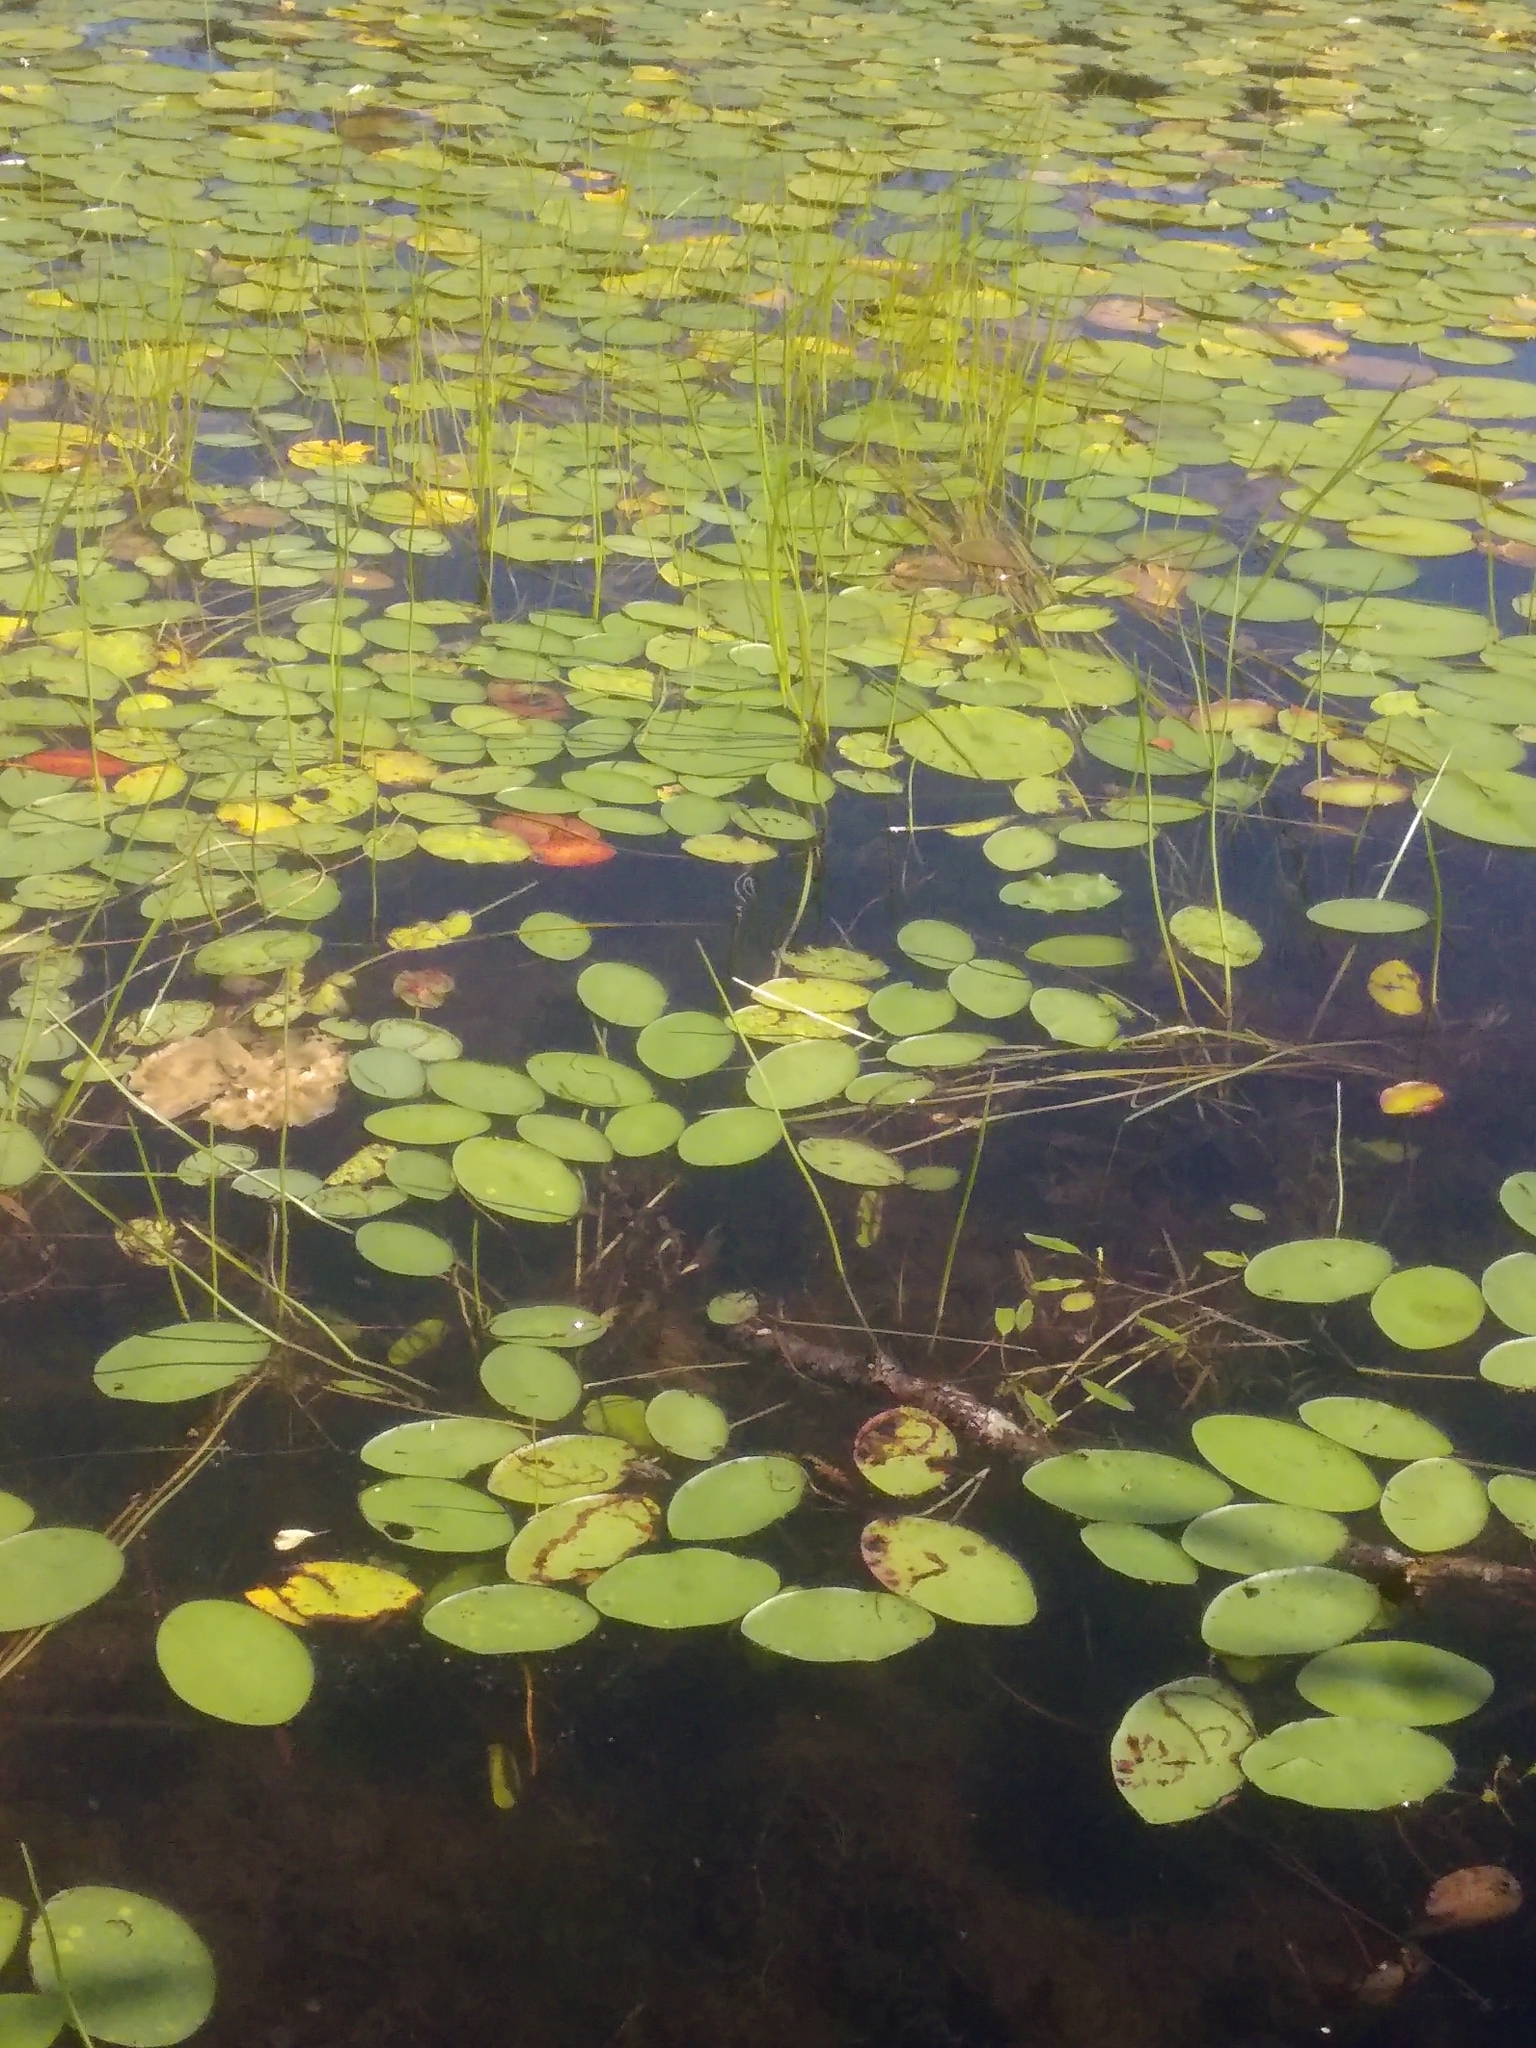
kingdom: Plantae
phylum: Tracheophyta
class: Magnoliopsida
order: Nymphaeales
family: Cabombaceae
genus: Brasenia
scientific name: Brasenia schreberi
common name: Water-shield
